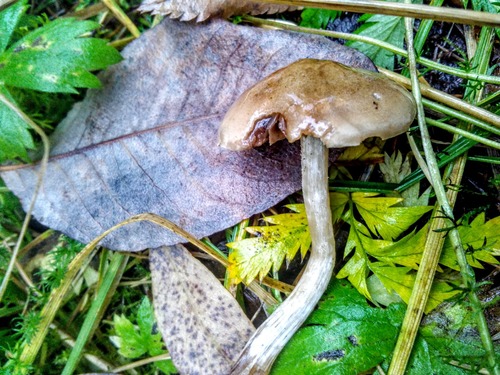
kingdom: Fungi
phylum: Basidiomycota
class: Agaricomycetes
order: Agaricales
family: Hymenogastraceae
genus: Hebeloma
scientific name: Hebeloma
